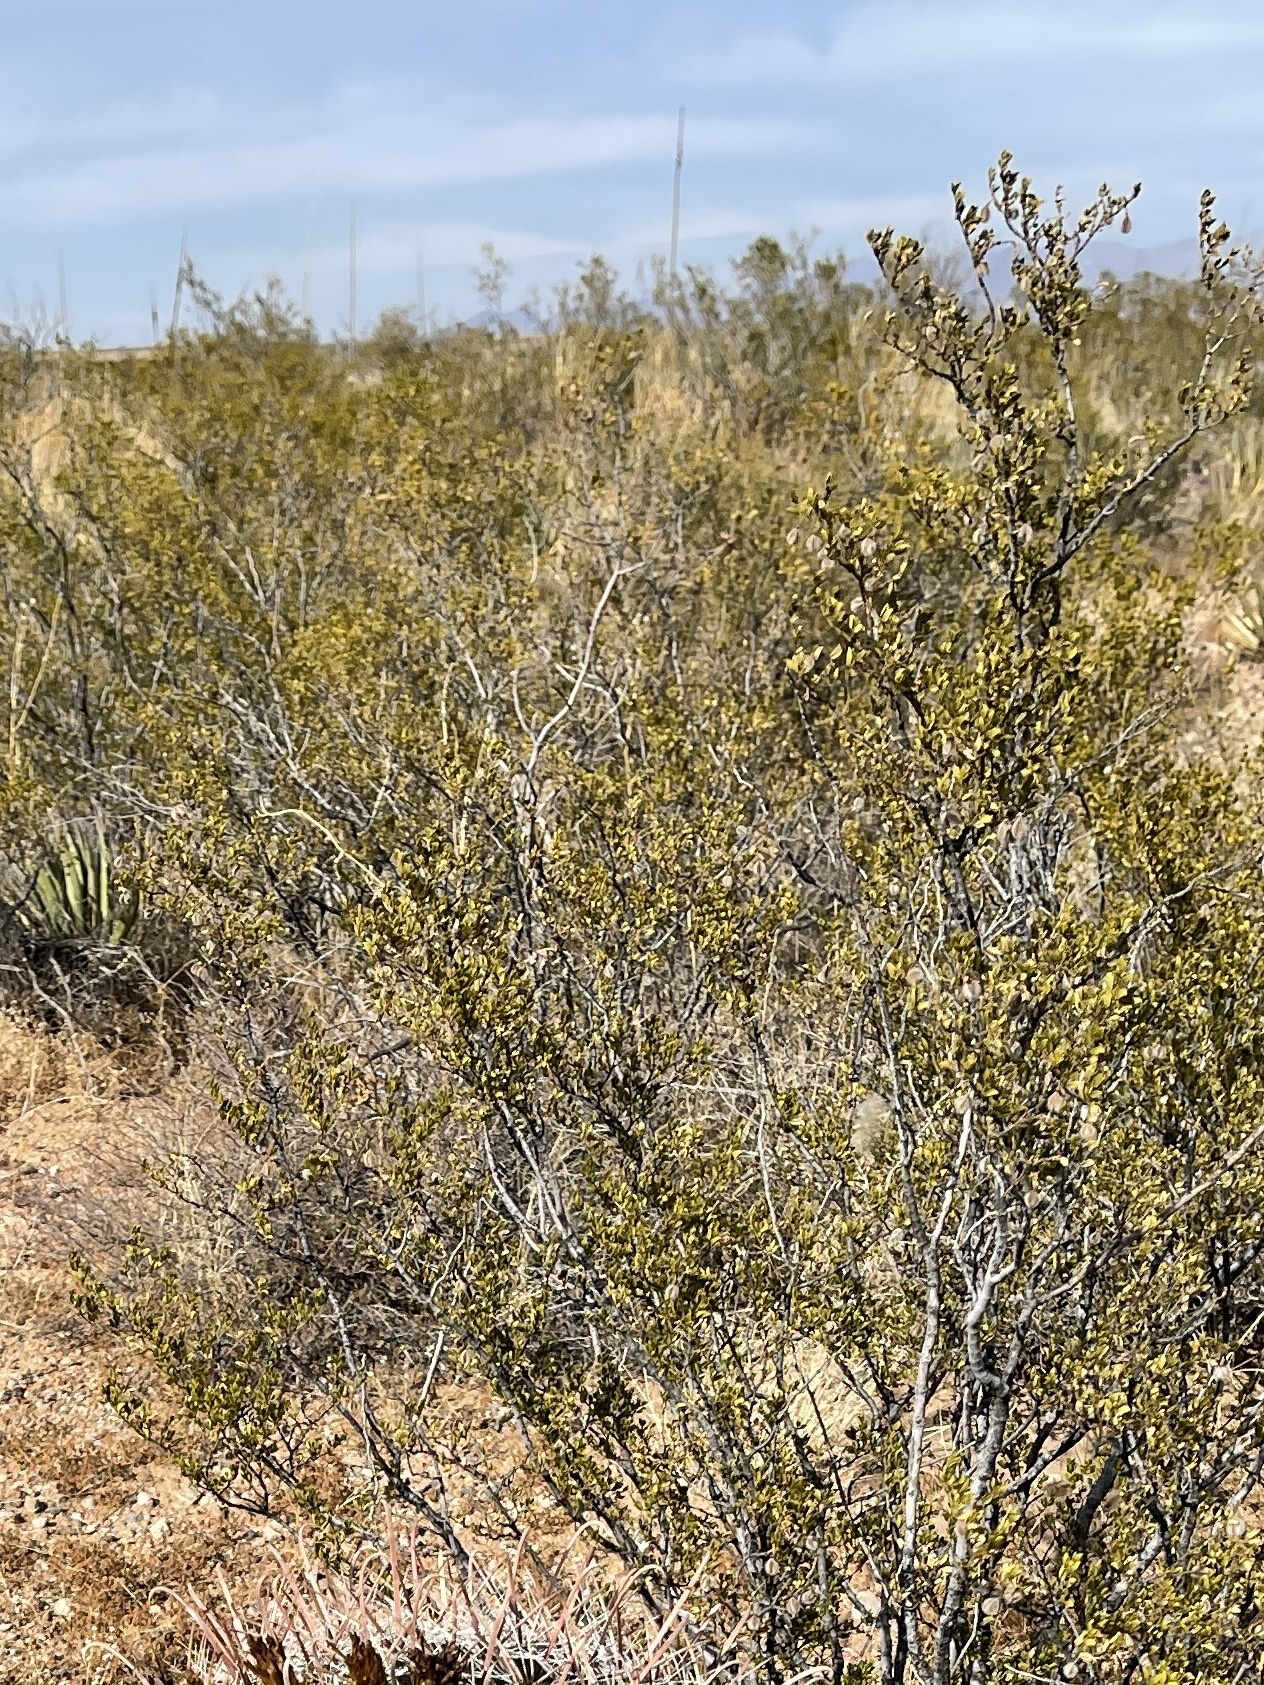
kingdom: Plantae
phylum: Tracheophyta
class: Magnoliopsida
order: Zygophyllales
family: Zygophyllaceae
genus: Larrea
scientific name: Larrea tridentata
